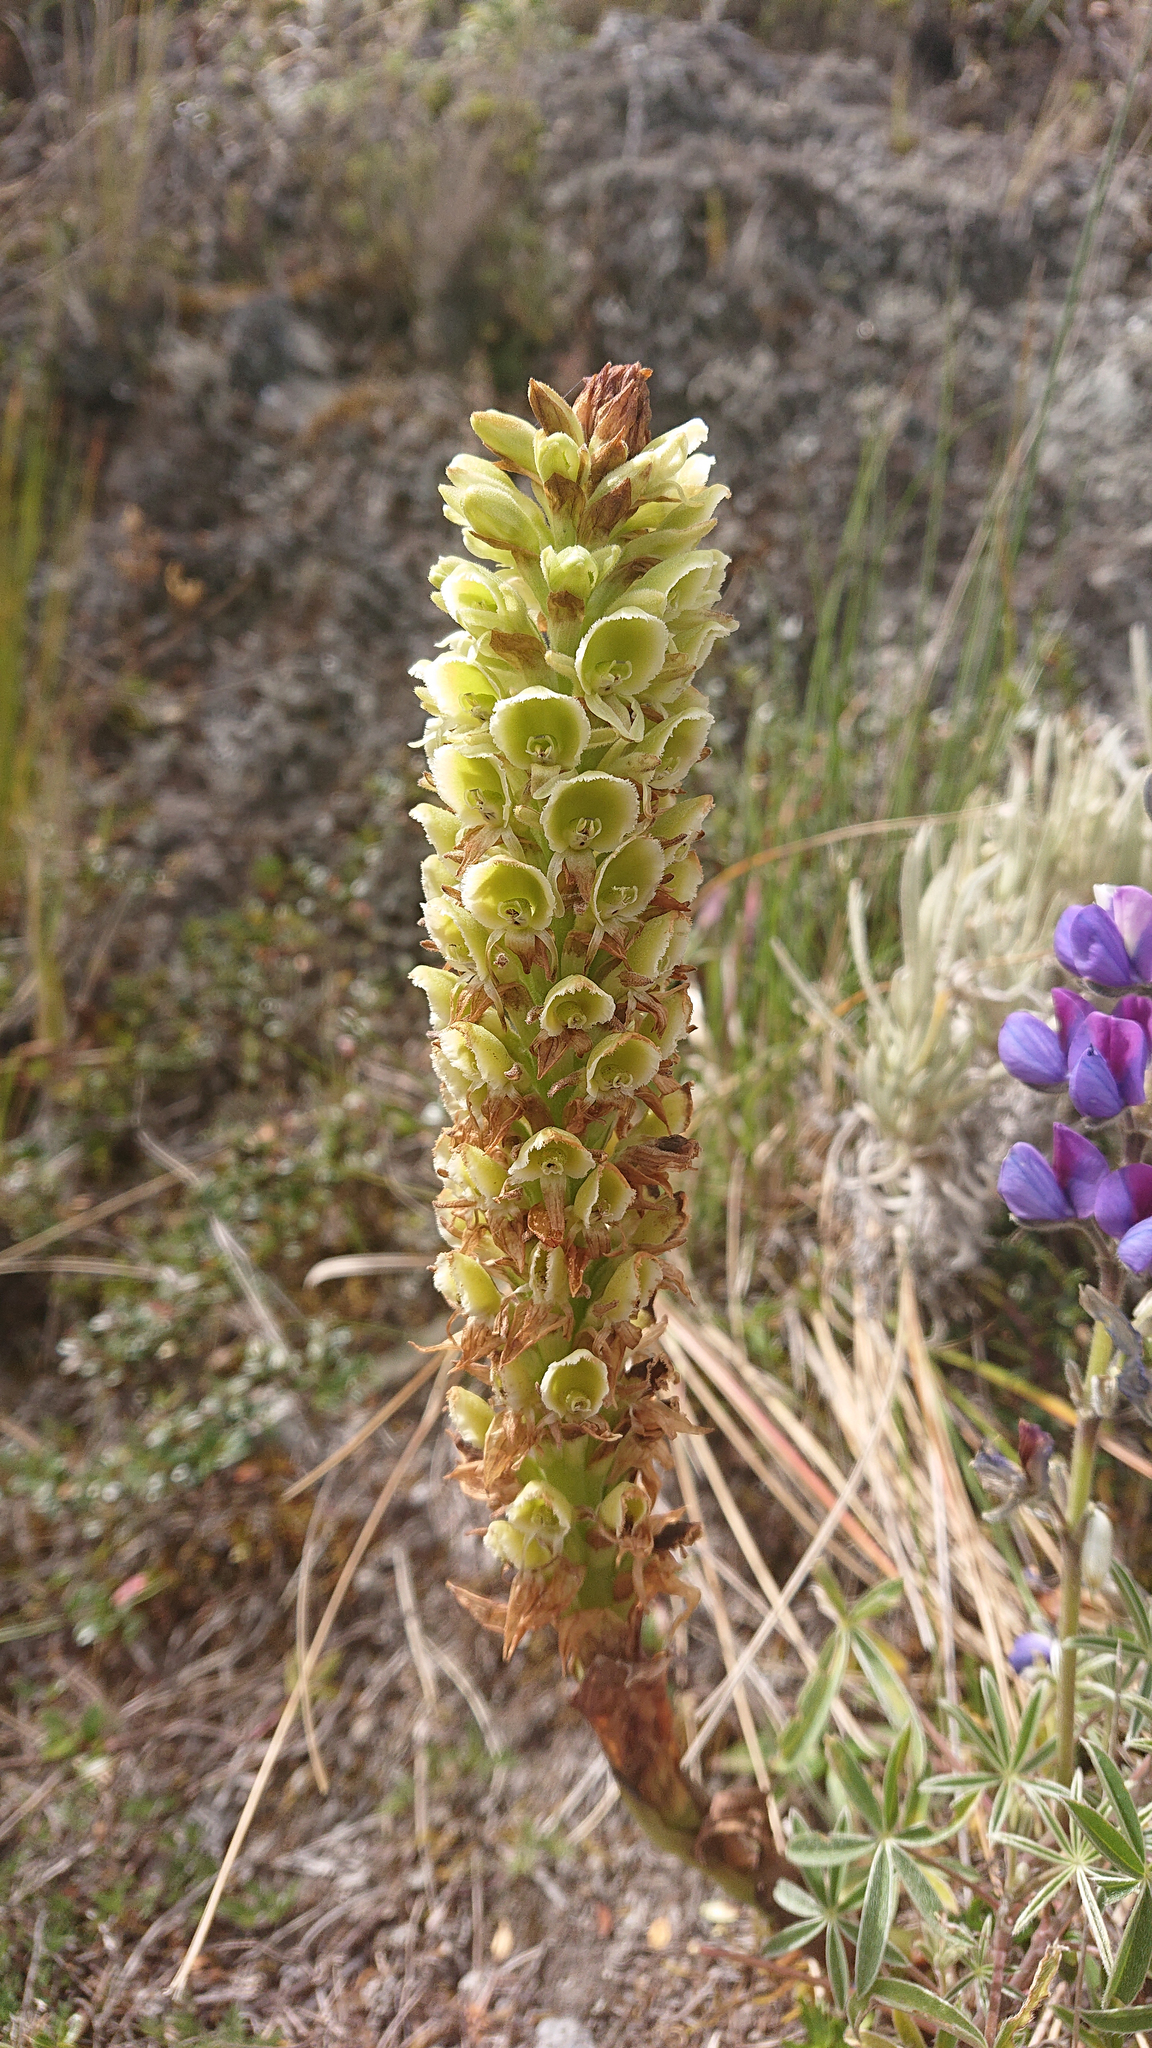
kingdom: Plantae
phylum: Tracheophyta
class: Liliopsida
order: Asparagales
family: Orchidaceae
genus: Altensteinia
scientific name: Altensteinia fimbriata
